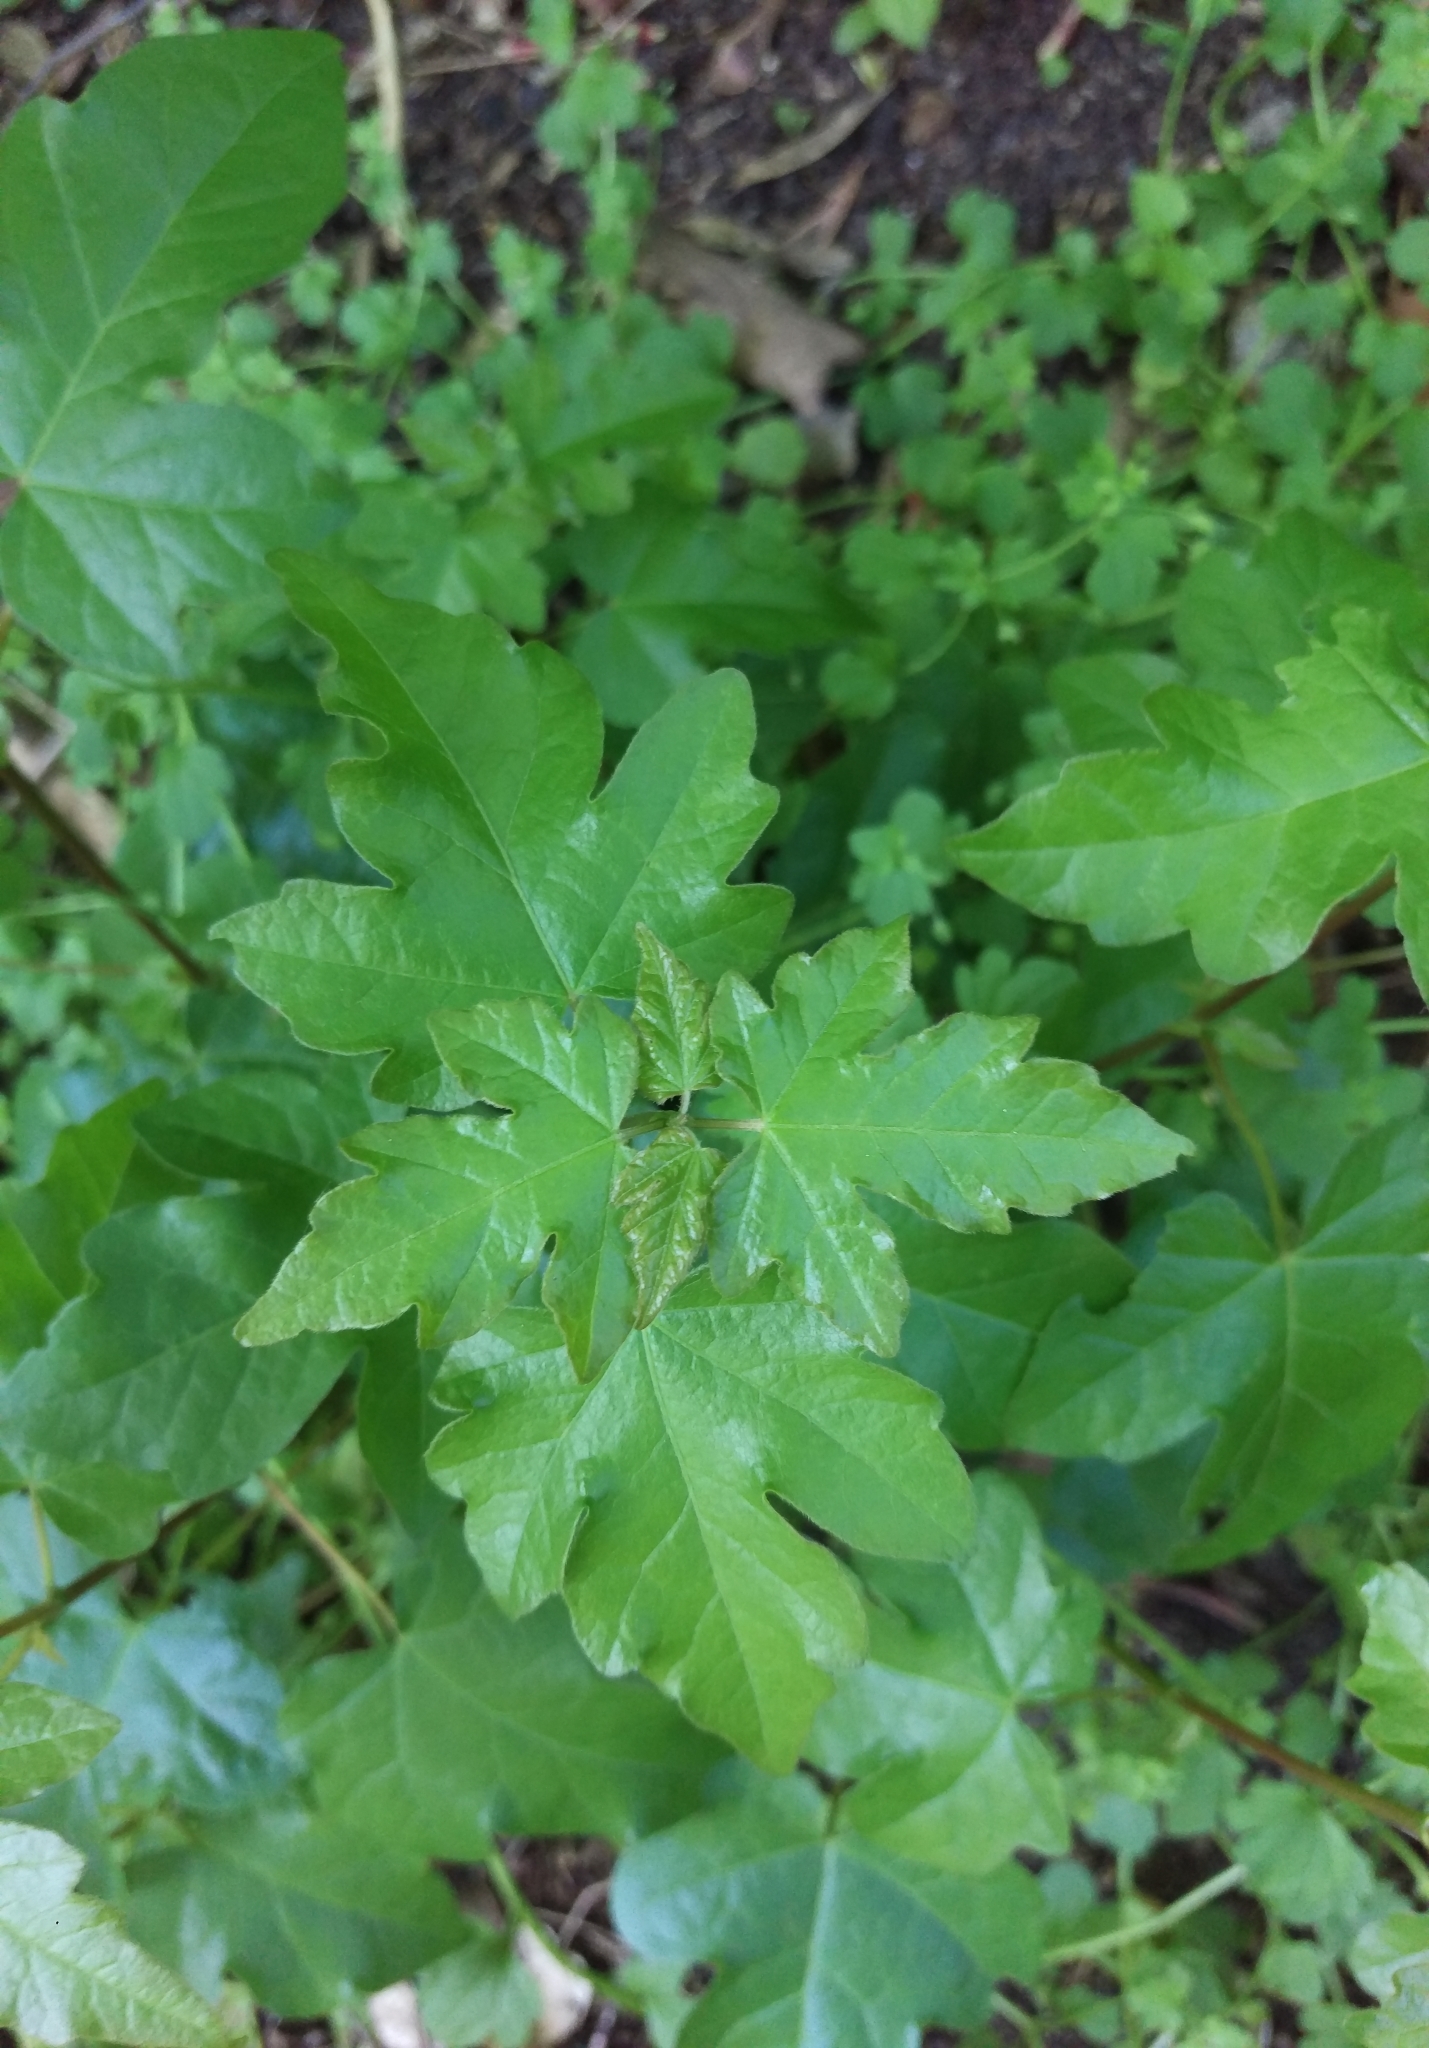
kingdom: Plantae
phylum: Tracheophyta
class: Magnoliopsida
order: Sapindales
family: Sapindaceae
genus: Acer
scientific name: Acer campestre
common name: Field maple
